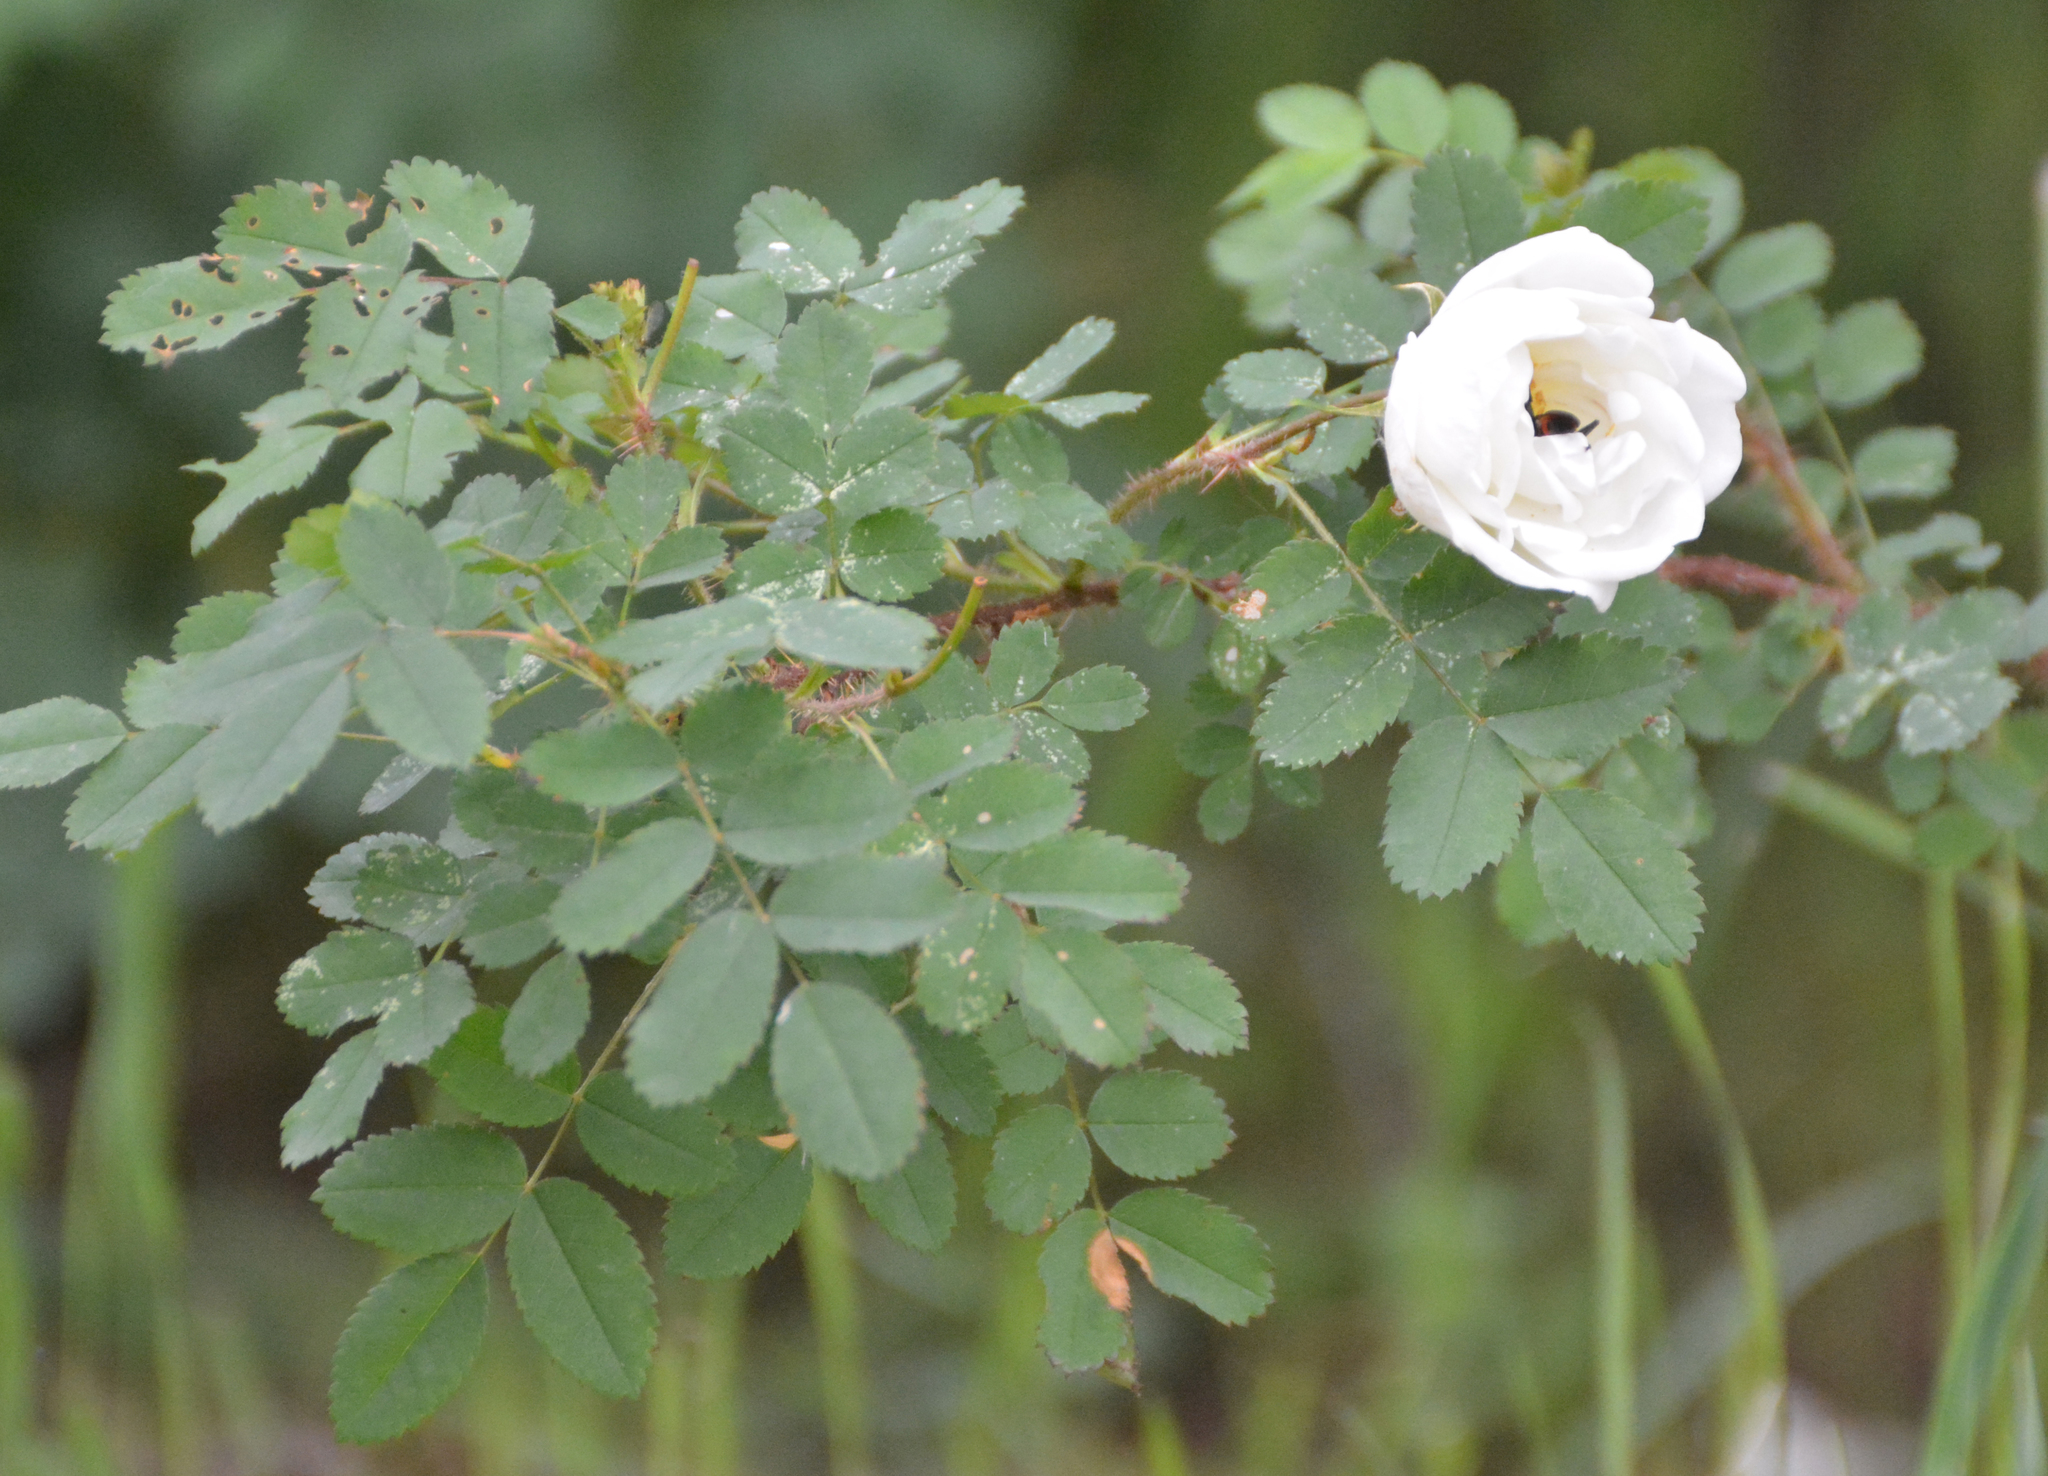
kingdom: Plantae
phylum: Tracheophyta
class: Magnoliopsida
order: Rosales
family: Rosaceae
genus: Rosa
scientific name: Rosa spinosissima
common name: Burnet rose
